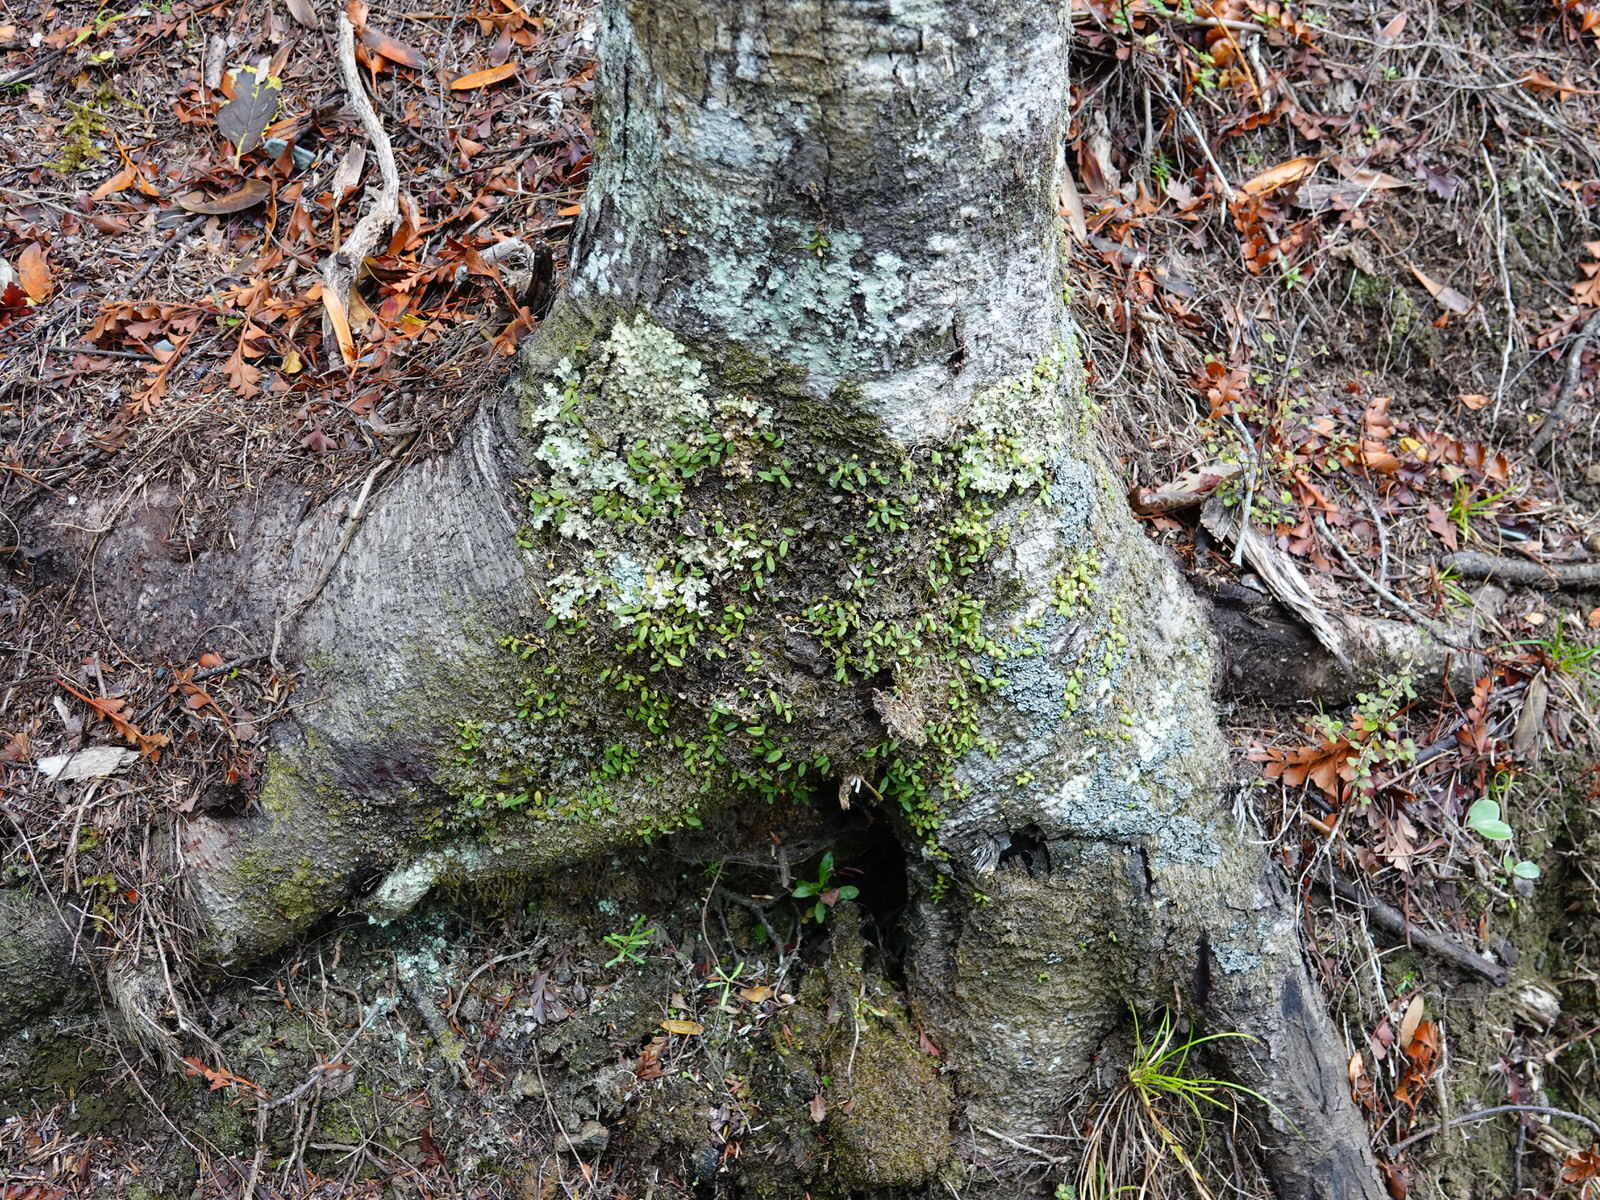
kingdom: Plantae
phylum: Tracheophyta
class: Liliopsida
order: Asparagales
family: Orchidaceae
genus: Bulbophyllum
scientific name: Bulbophyllum pygmaeum
